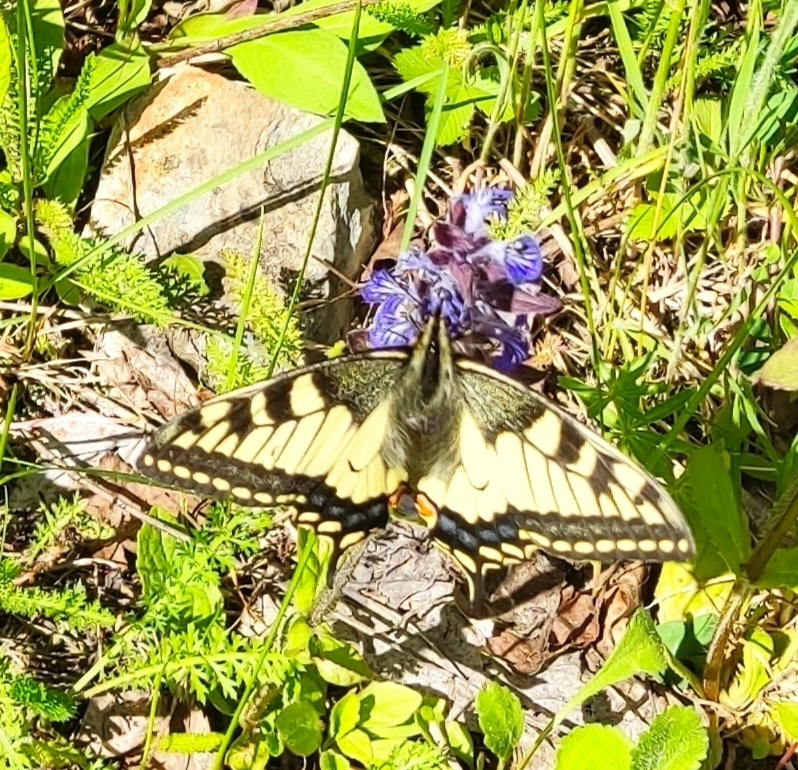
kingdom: Animalia
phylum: Arthropoda
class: Insecta
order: Lepidoptera
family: Papilionidae
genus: Papilio
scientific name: Papilio machaon
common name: Swallowtail
